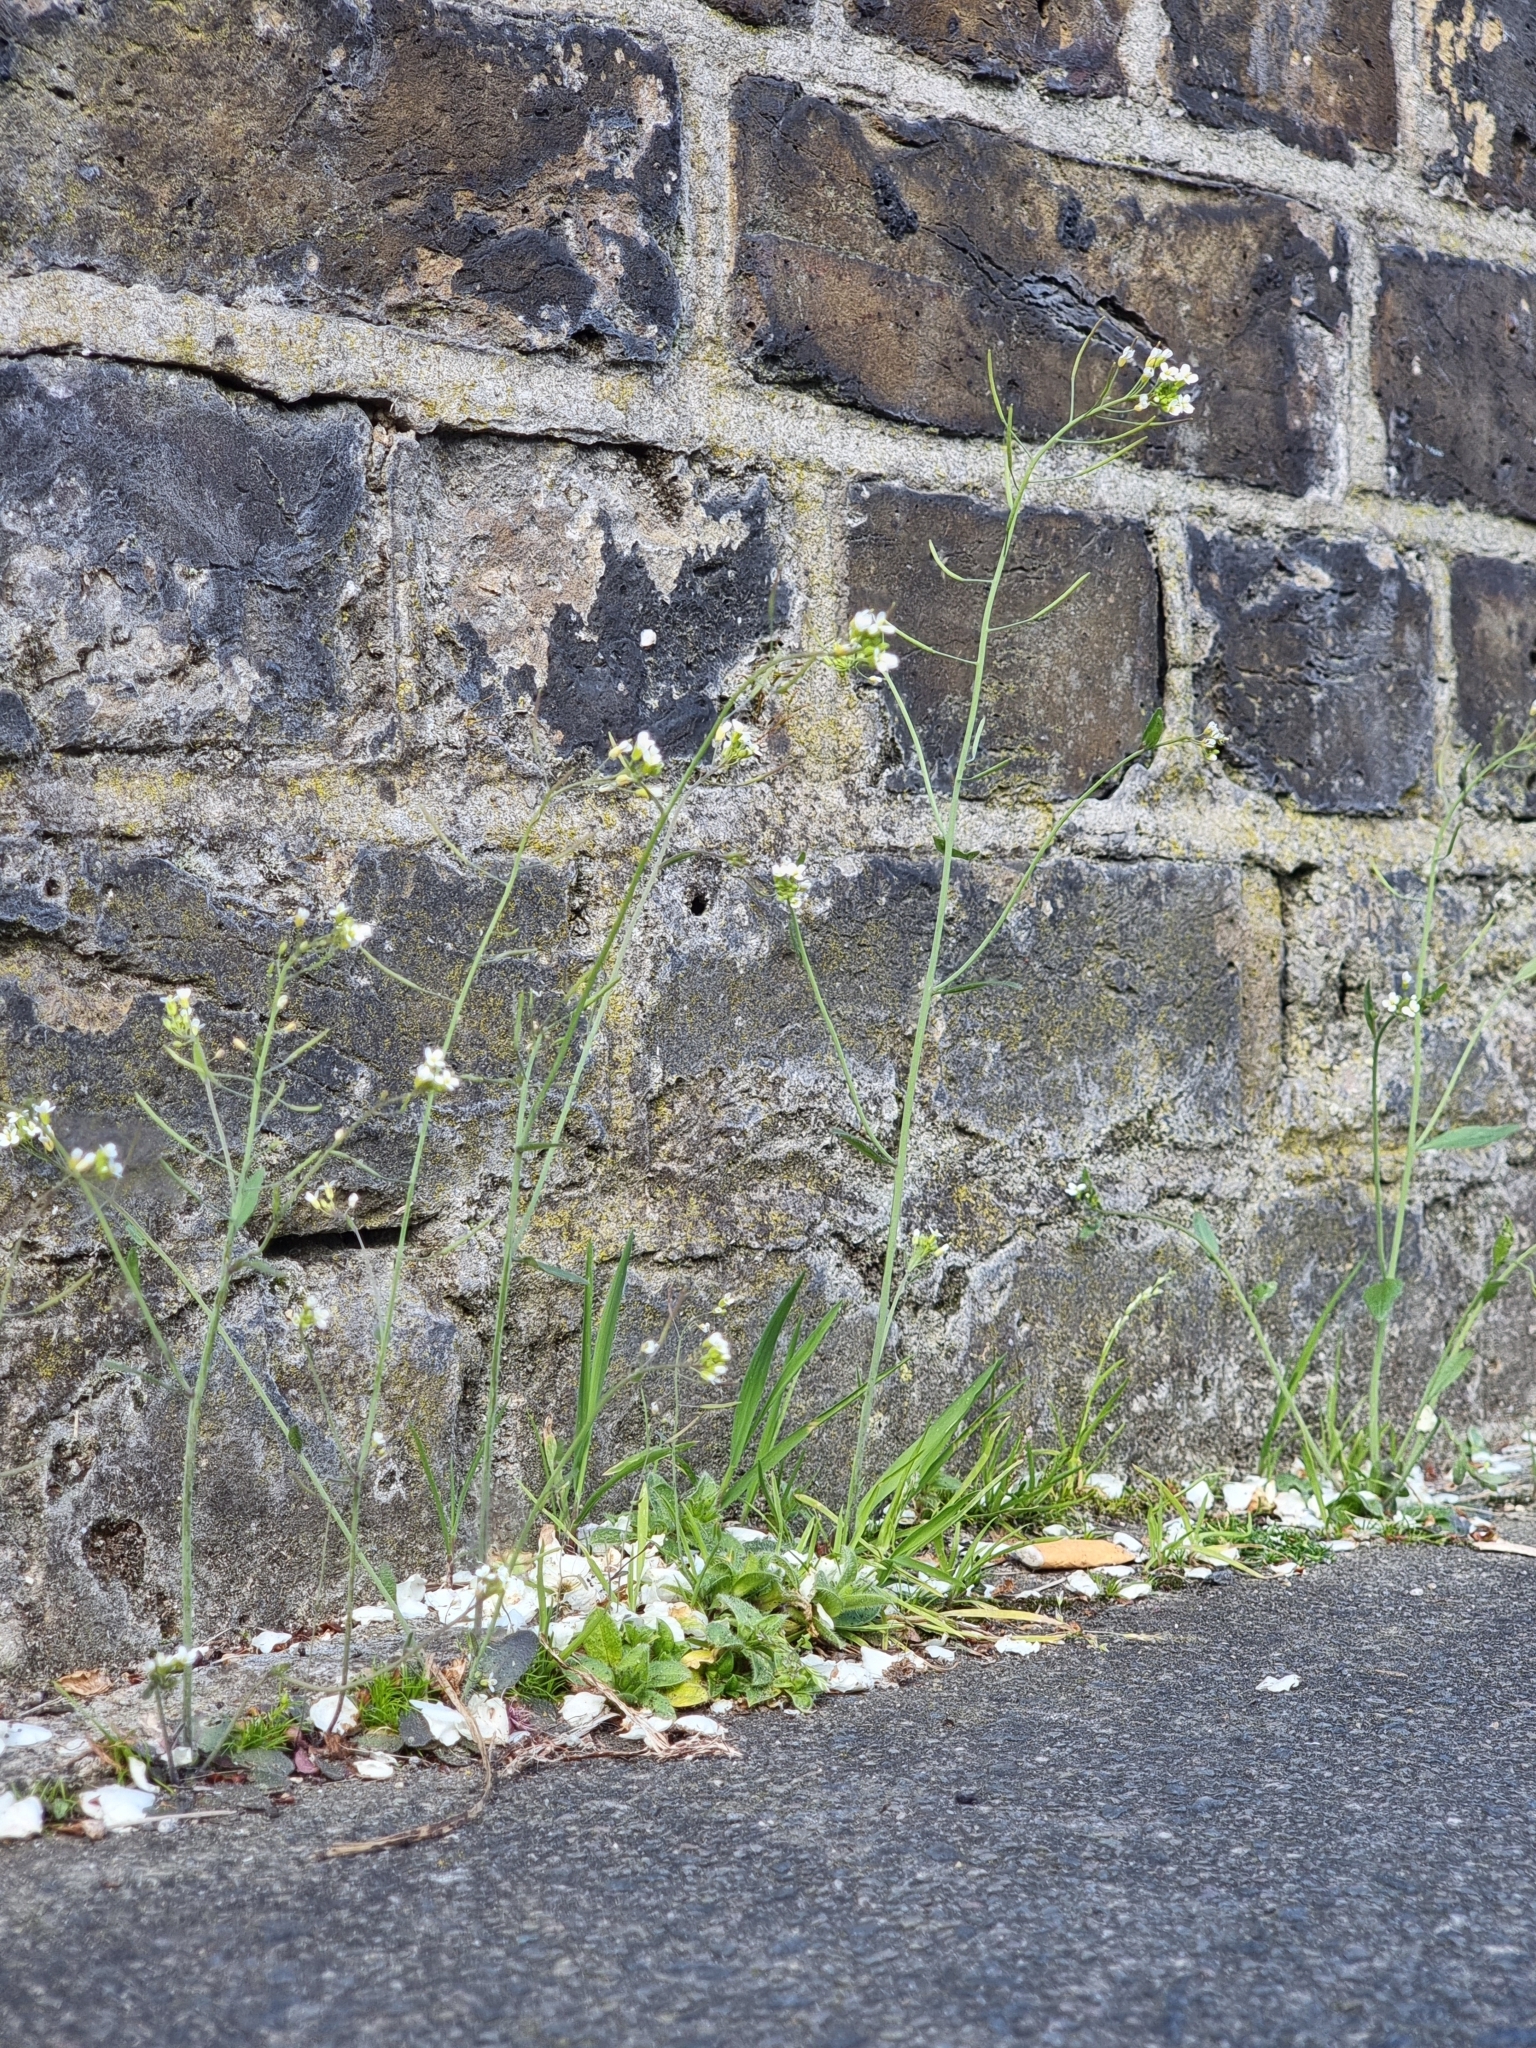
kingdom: Plantae
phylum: Tracheophyta
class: Magnoliopsida
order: Brassicales
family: Brassicaceae
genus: Arabidopsis
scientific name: Arabidopsis thaliana
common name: Thale cress
